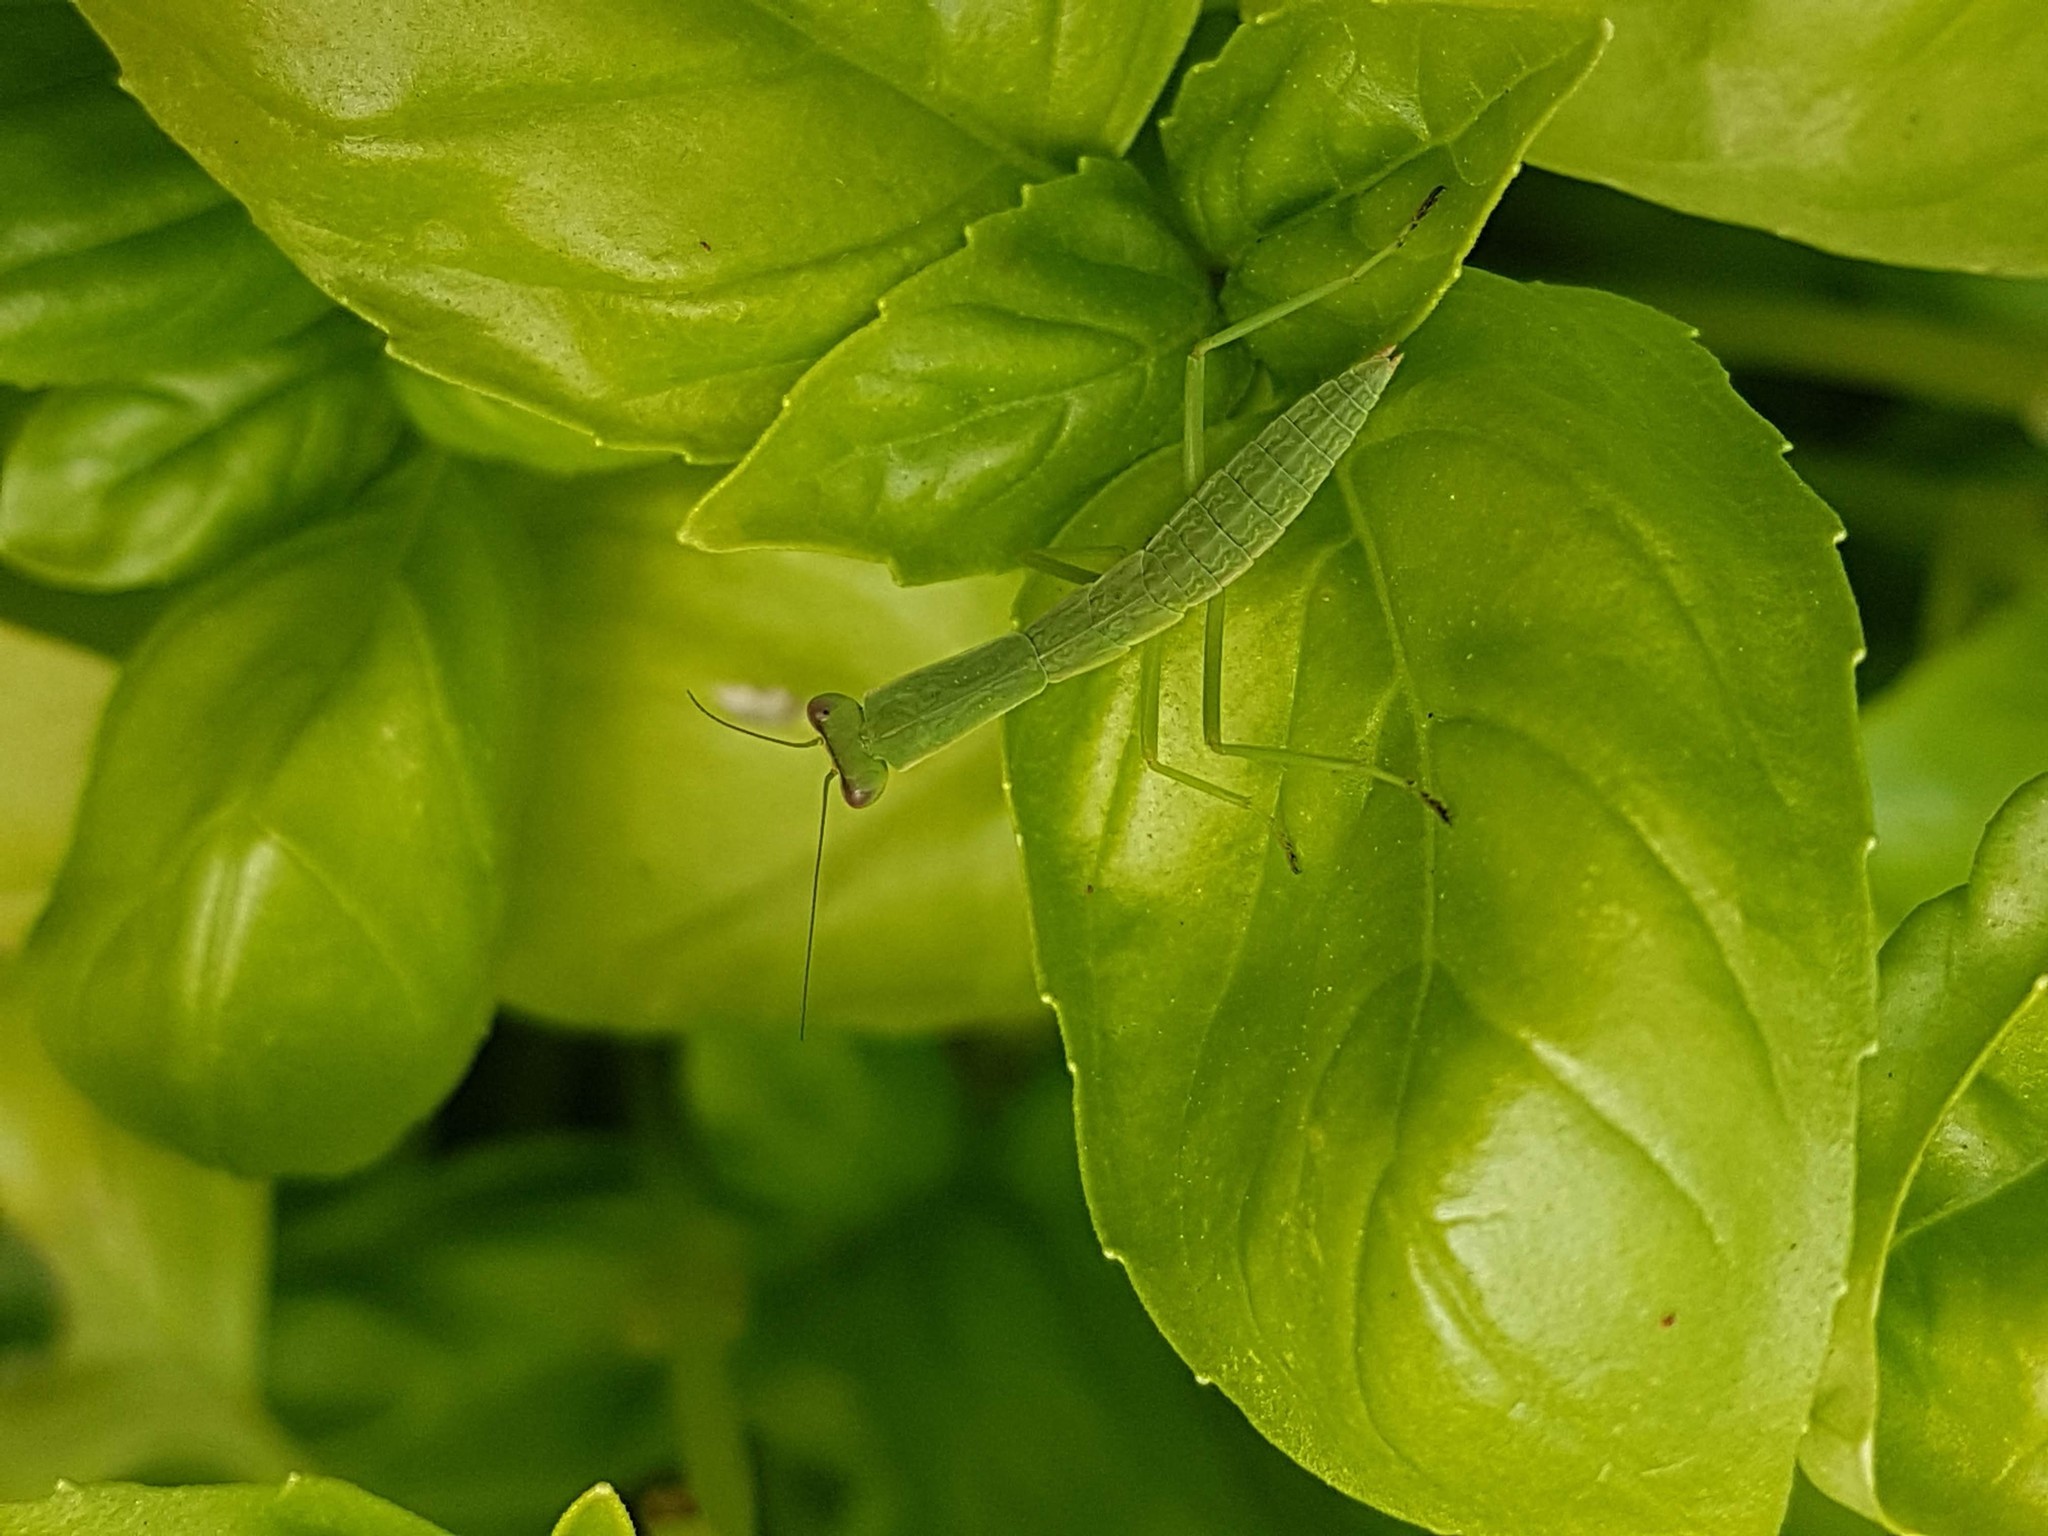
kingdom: Animalia
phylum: Arthropoda
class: Insecta
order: Mantodea
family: Mantidae
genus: Orthodera
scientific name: Orthodera novaezealandiae
